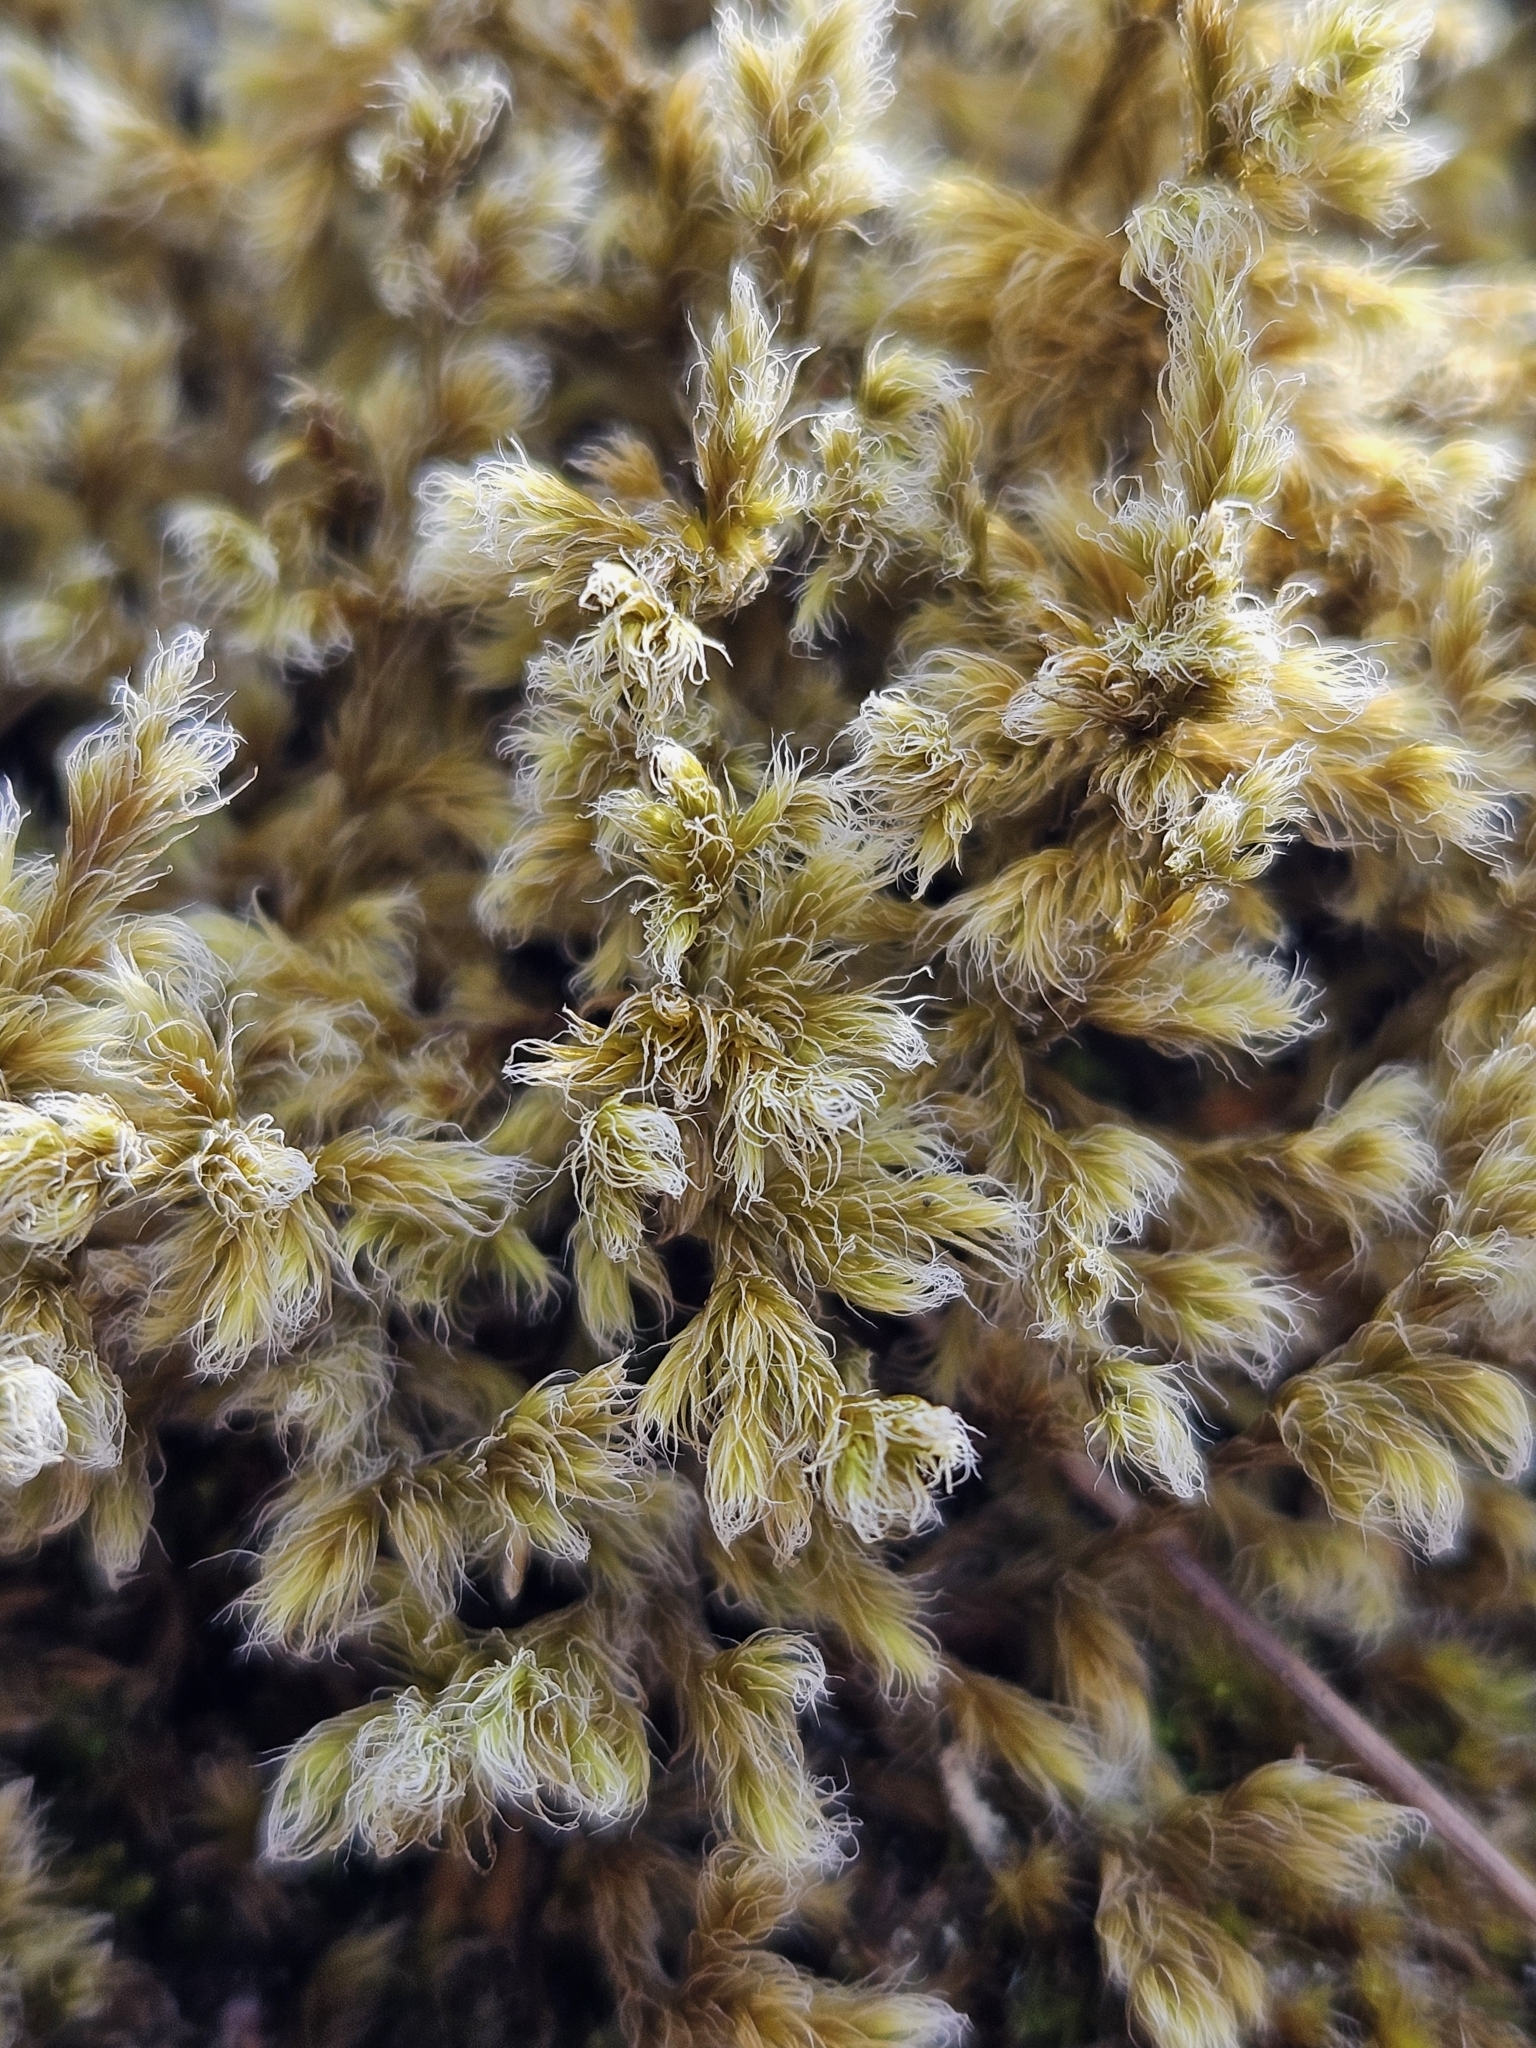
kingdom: Plantae
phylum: Bryophyta
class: Bryopsida
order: Grimmiales
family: Grimmiaceae
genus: Racomitrium
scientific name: Racomitrium lanuginosum
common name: Hoary rock moss
